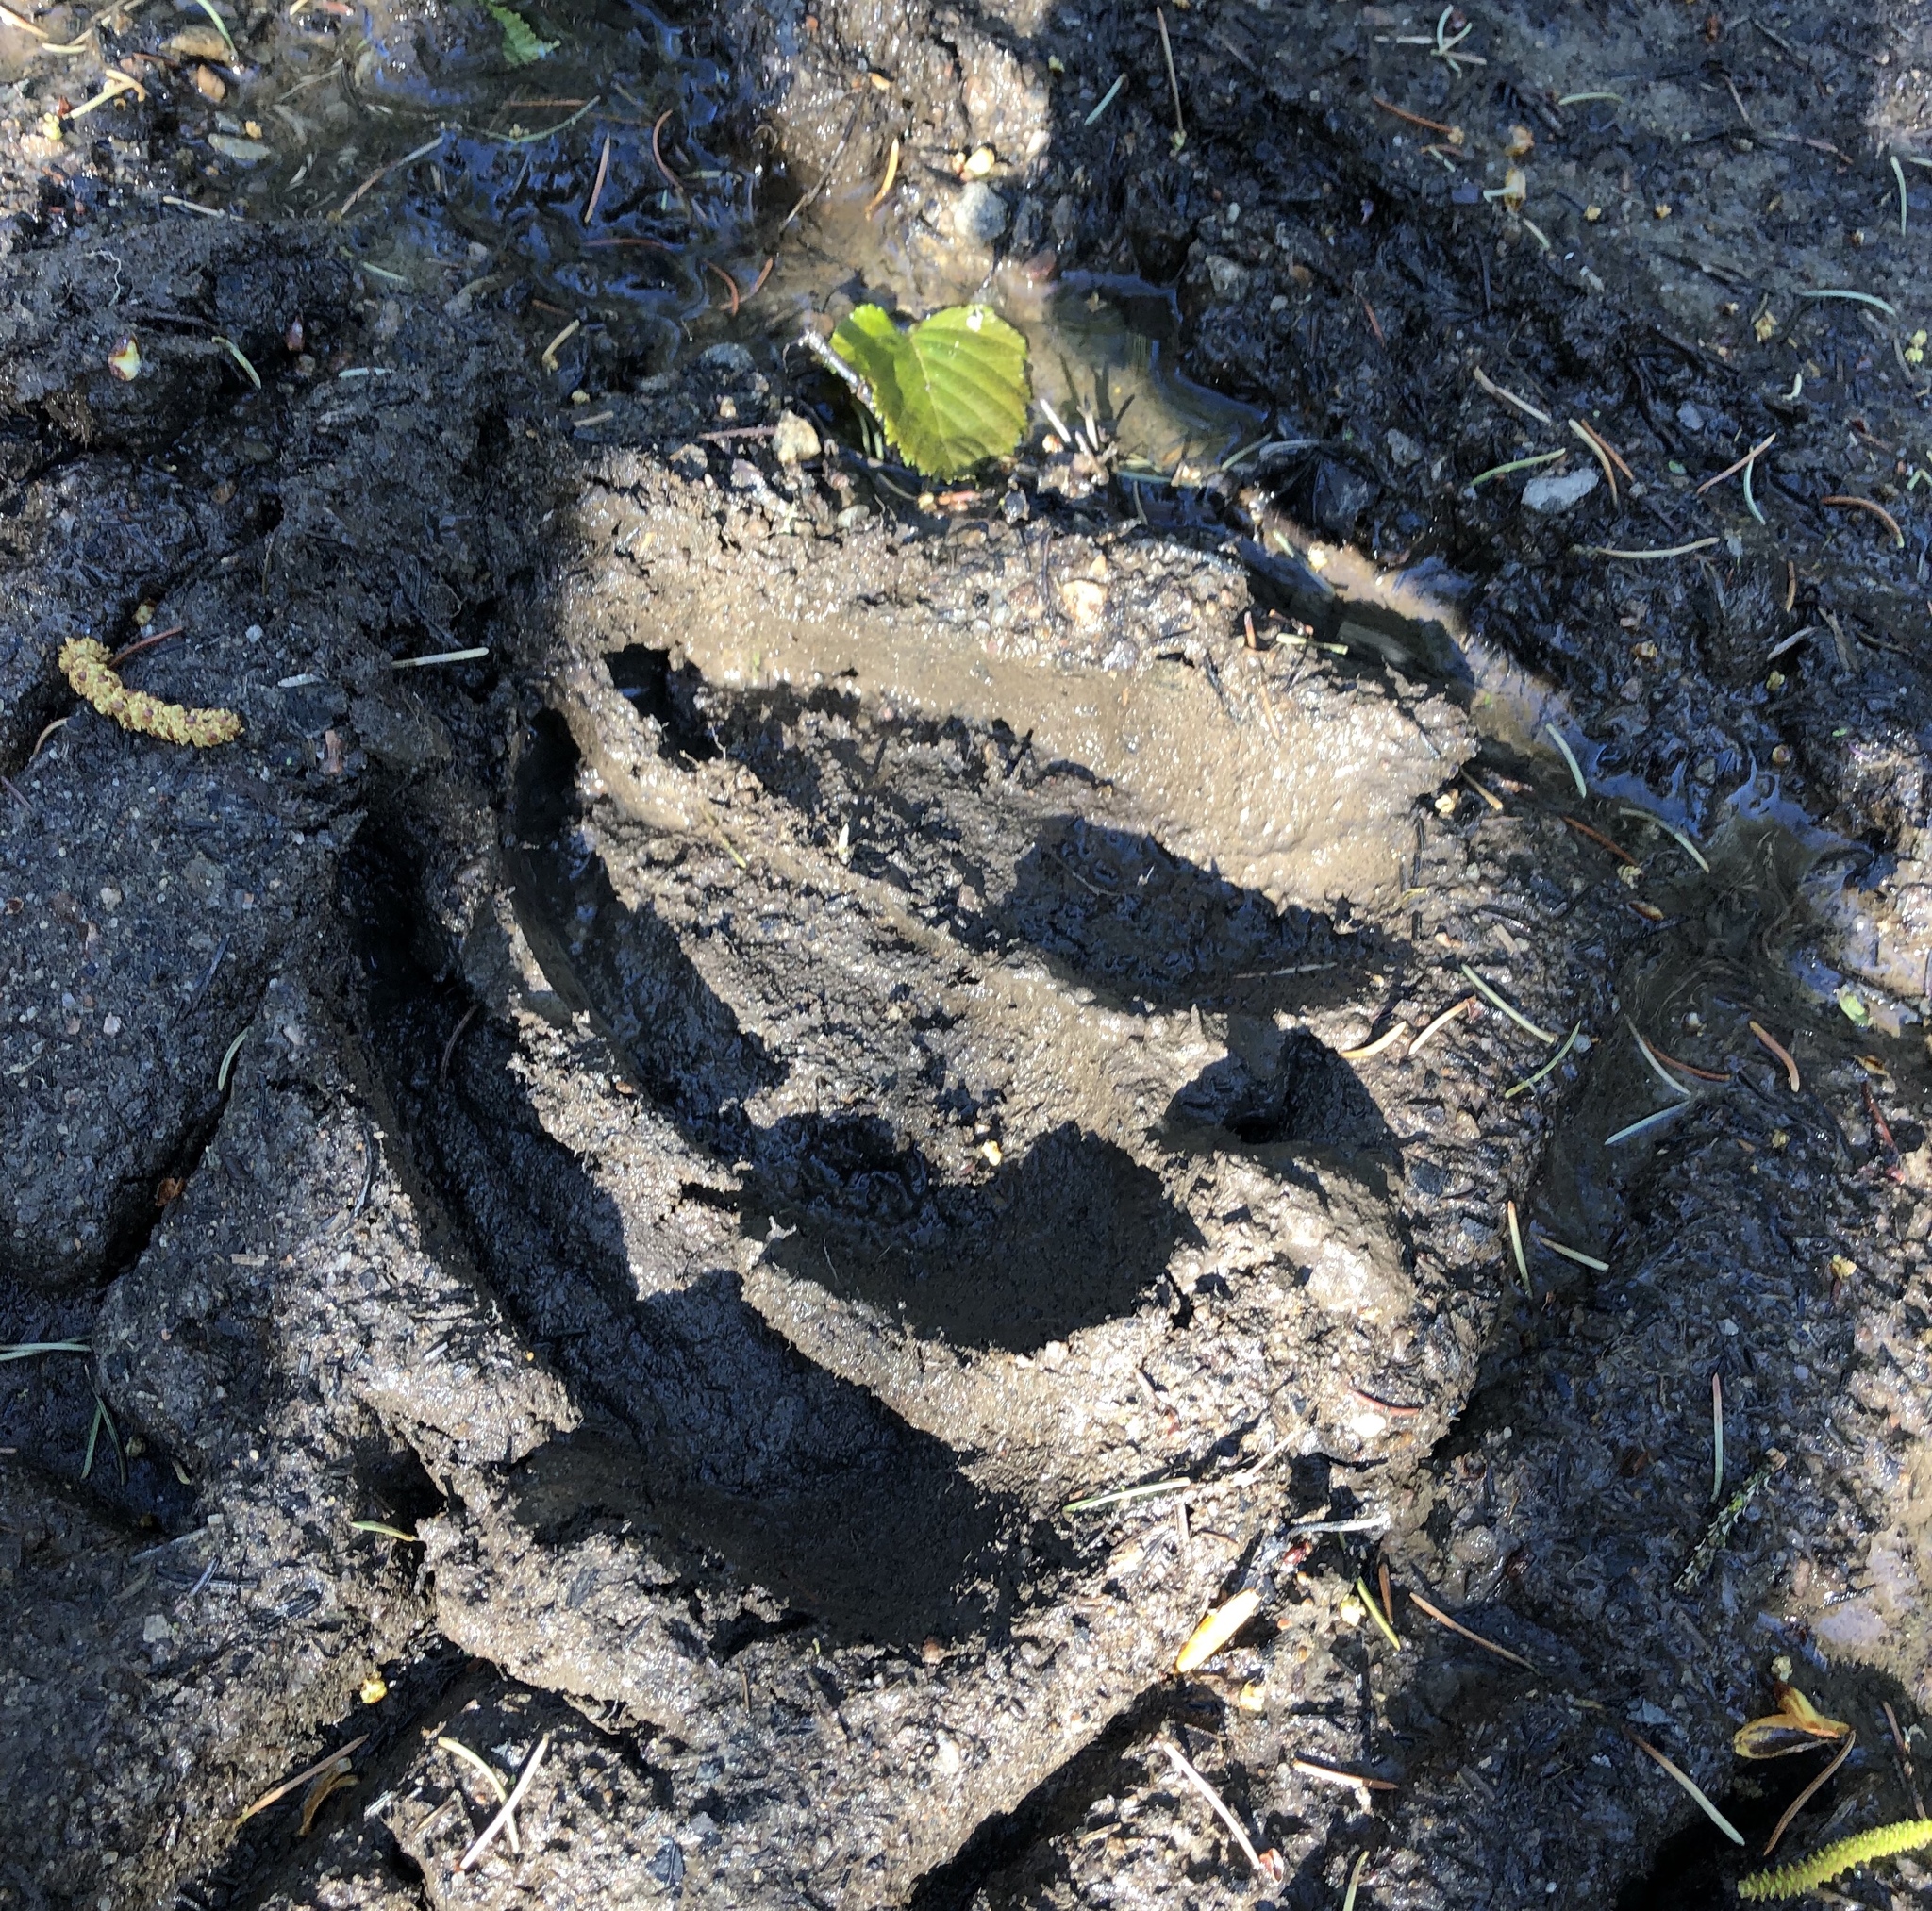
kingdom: Animalia
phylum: Chordata
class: Mammalia
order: Artiodactyla
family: Cervidae
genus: Alces
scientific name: Alces alces
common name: Moose
